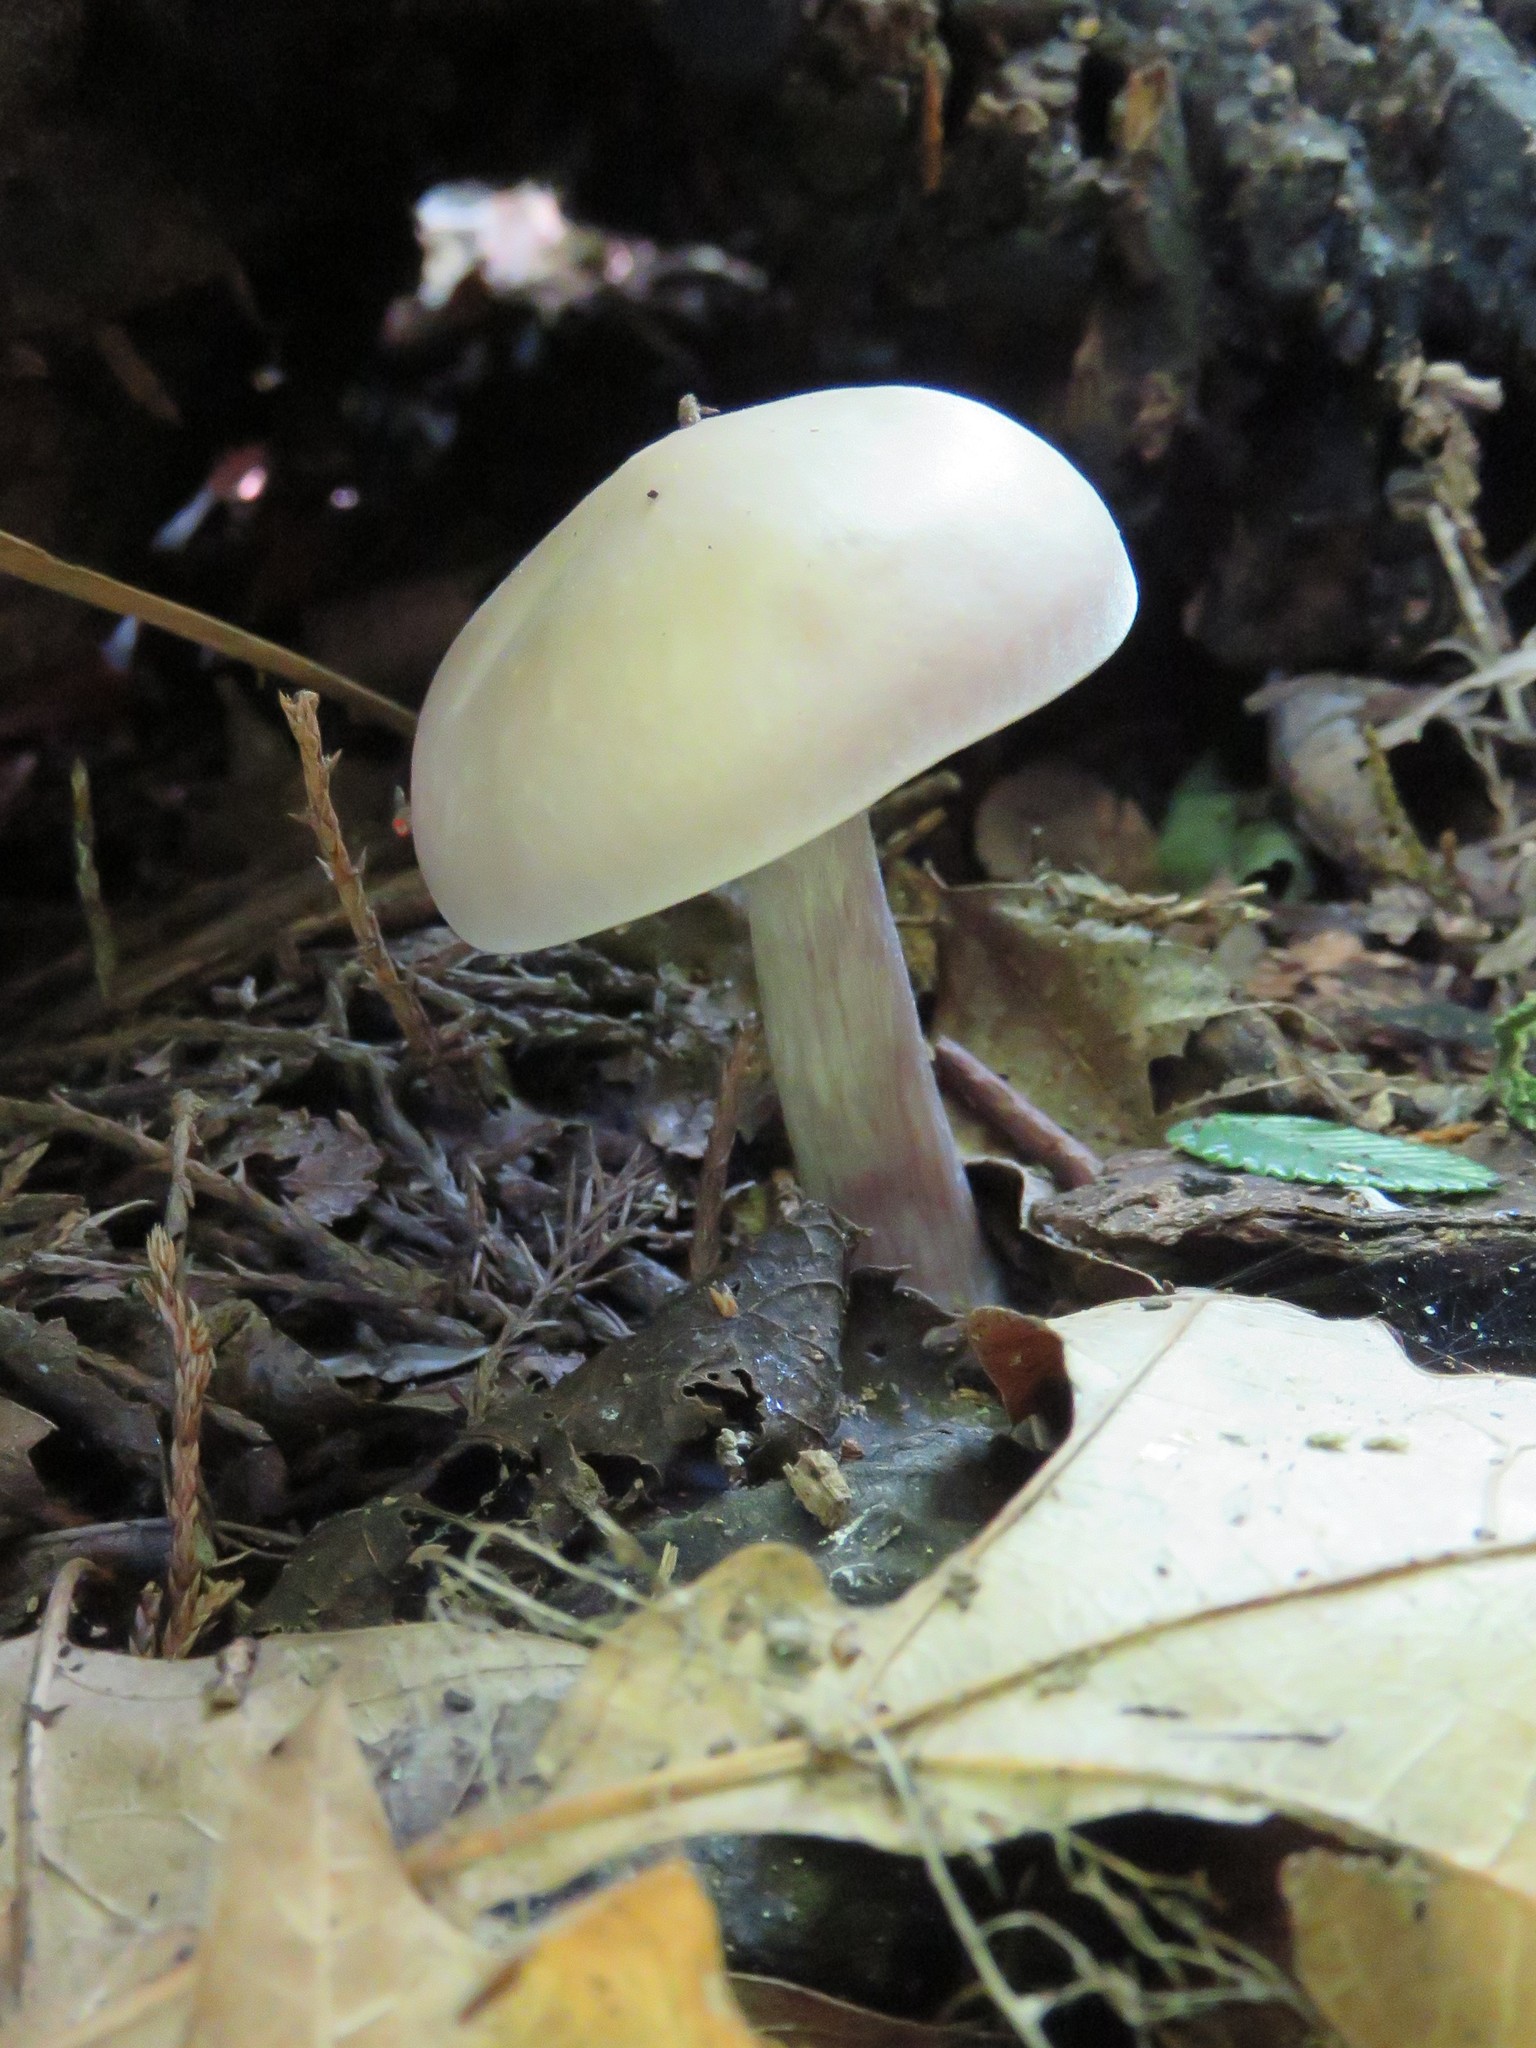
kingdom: Fungi
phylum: Basidiomycota
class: Agaricomycetes
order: Agaricales
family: Tricholomataceae
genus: Collybia
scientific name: Collybia
